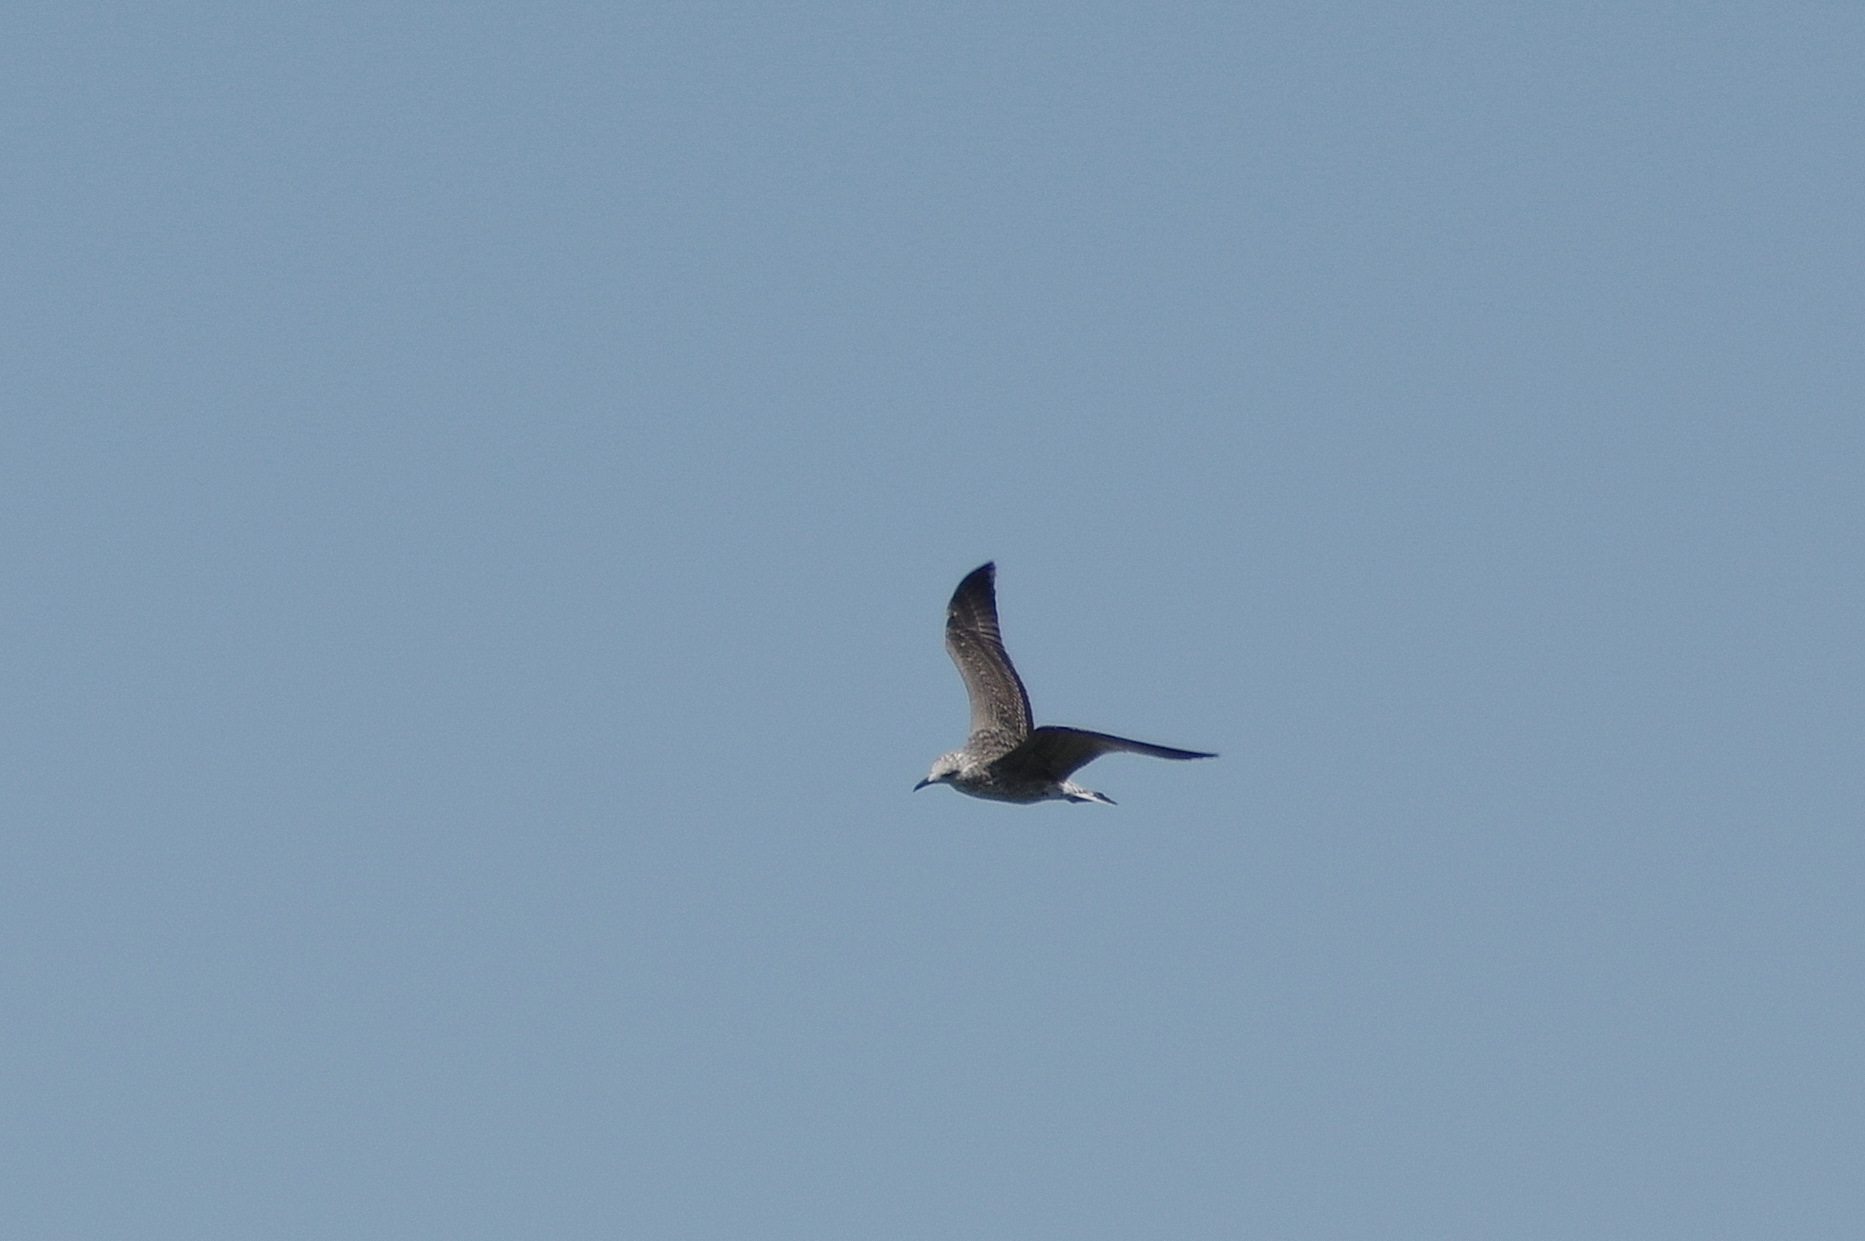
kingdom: Animalia
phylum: Chordata
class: Aves
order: Charadriiformes
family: Laridae
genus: Larus
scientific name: Larus fuscus
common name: Lesser black-backed gull
